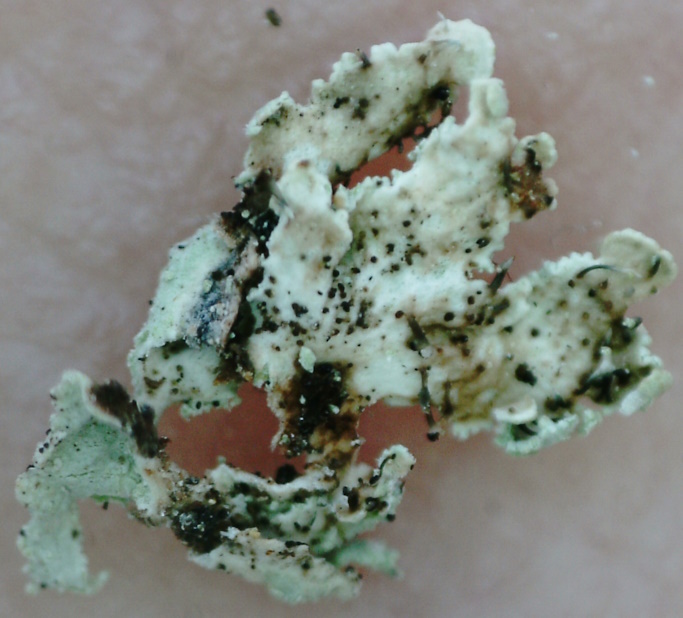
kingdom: Fungi
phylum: Ascomycota
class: Lecanoromycetes
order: Lecanorales
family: Parmeliaceae
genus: Imshaugia
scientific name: Imshaugia aleurites
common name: Salted starburst lichen
